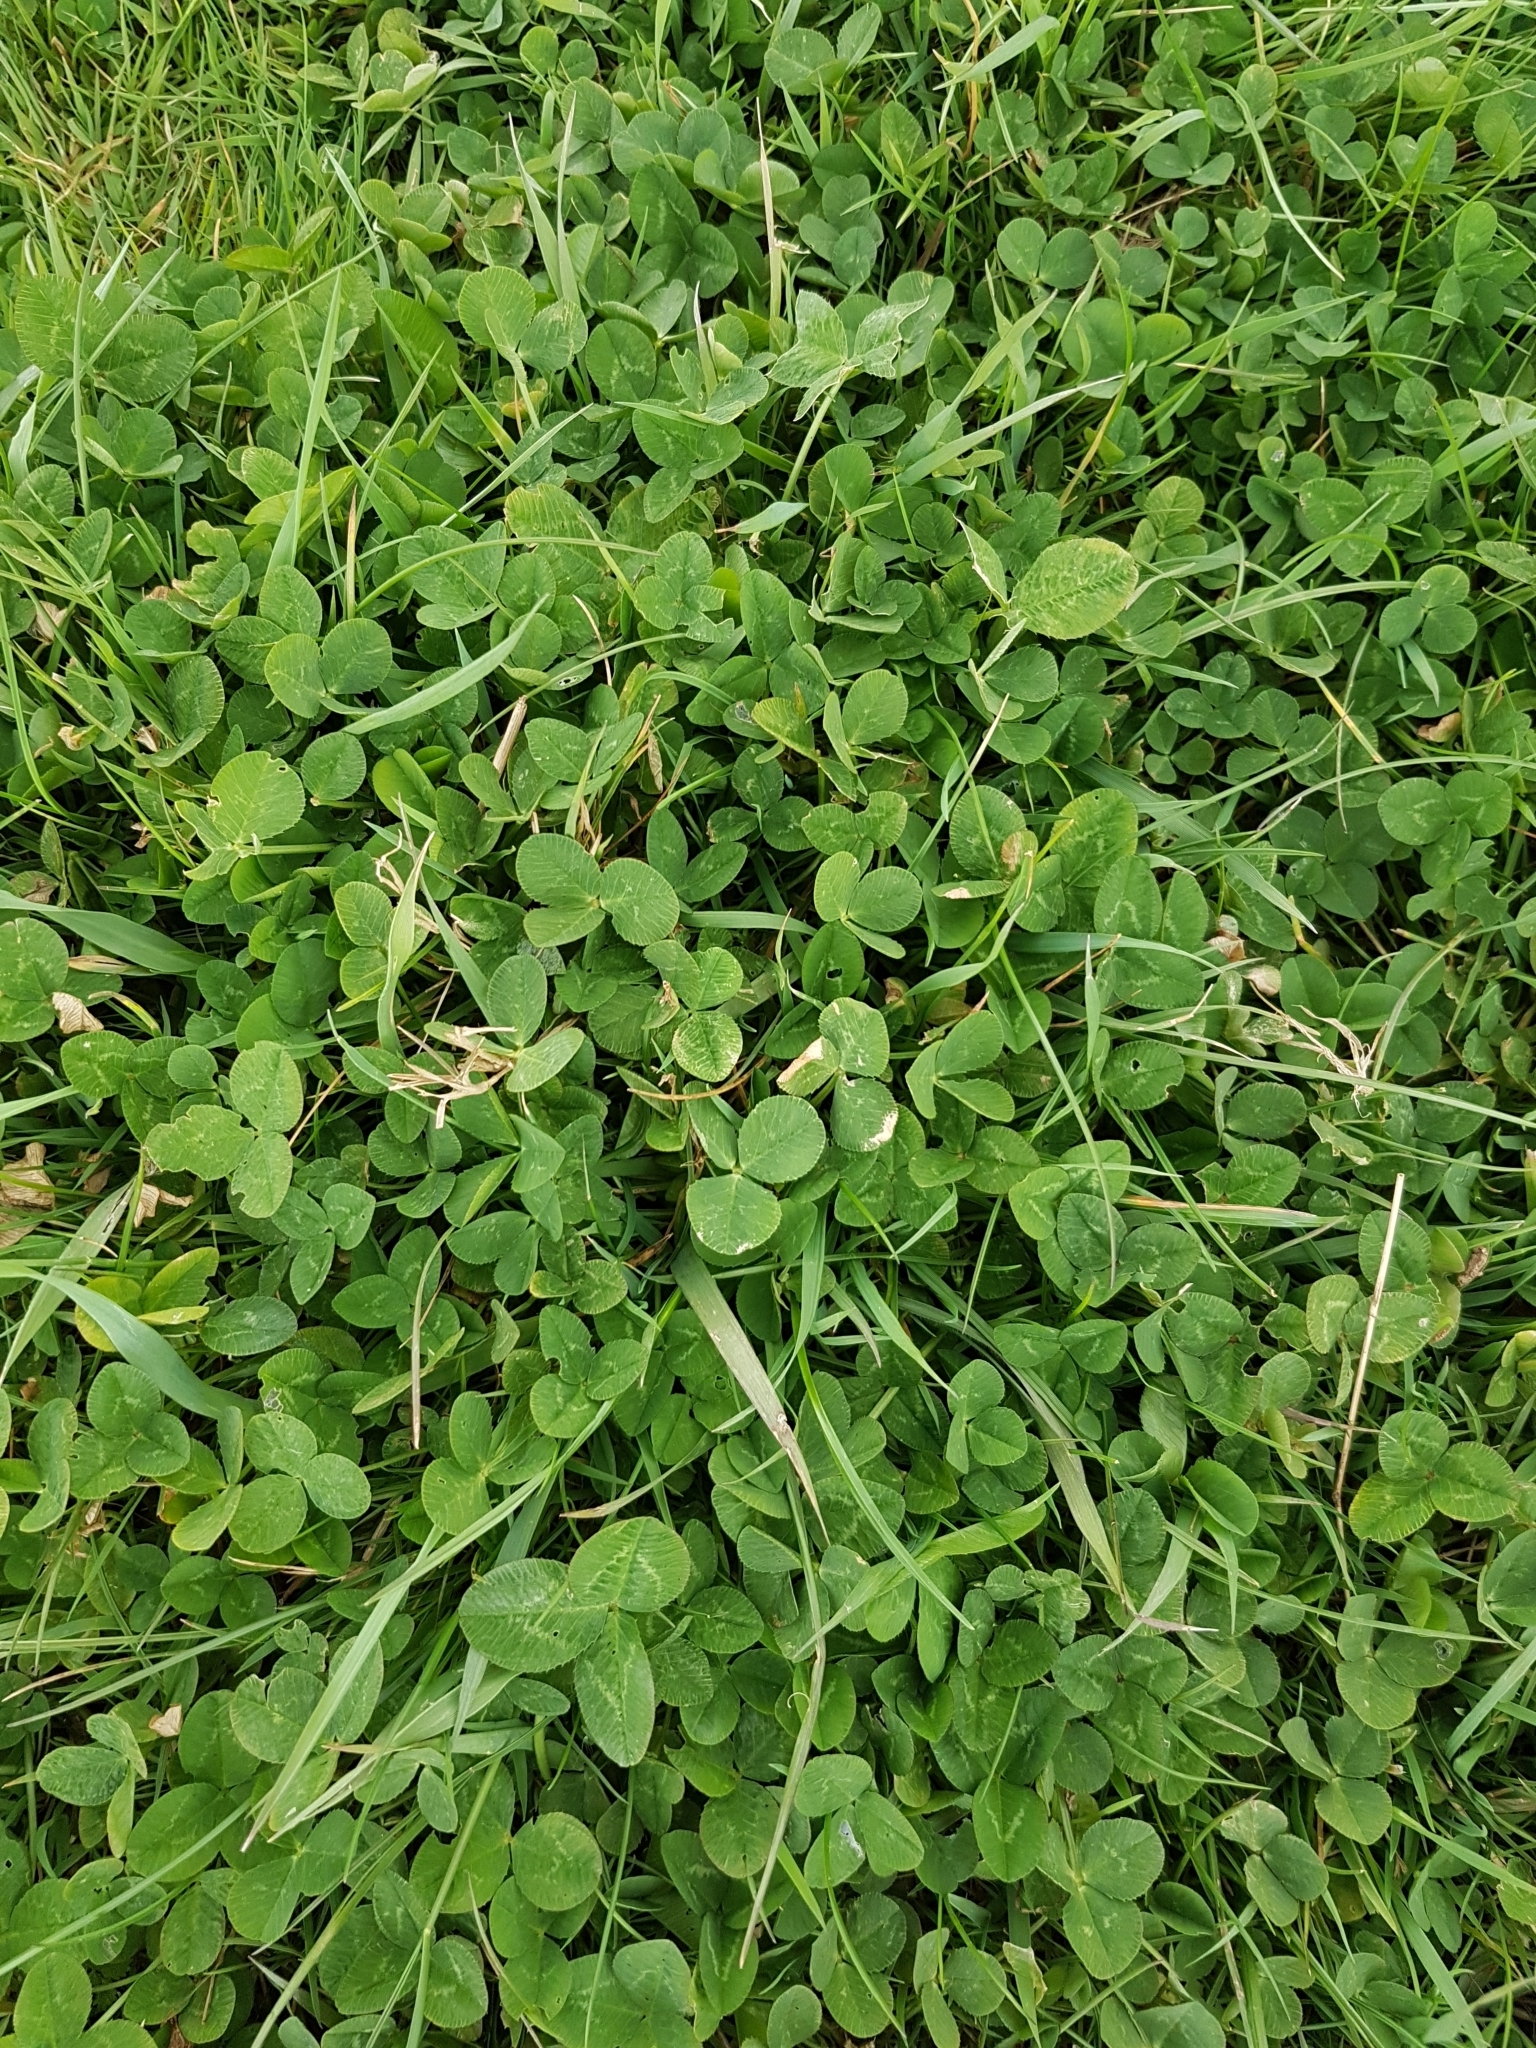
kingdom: Plantae
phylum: Tracheophyta
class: Magnoliopsida
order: Fabales
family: Fabaceae
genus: Trifolium
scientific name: Trifolium repens
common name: White clover
